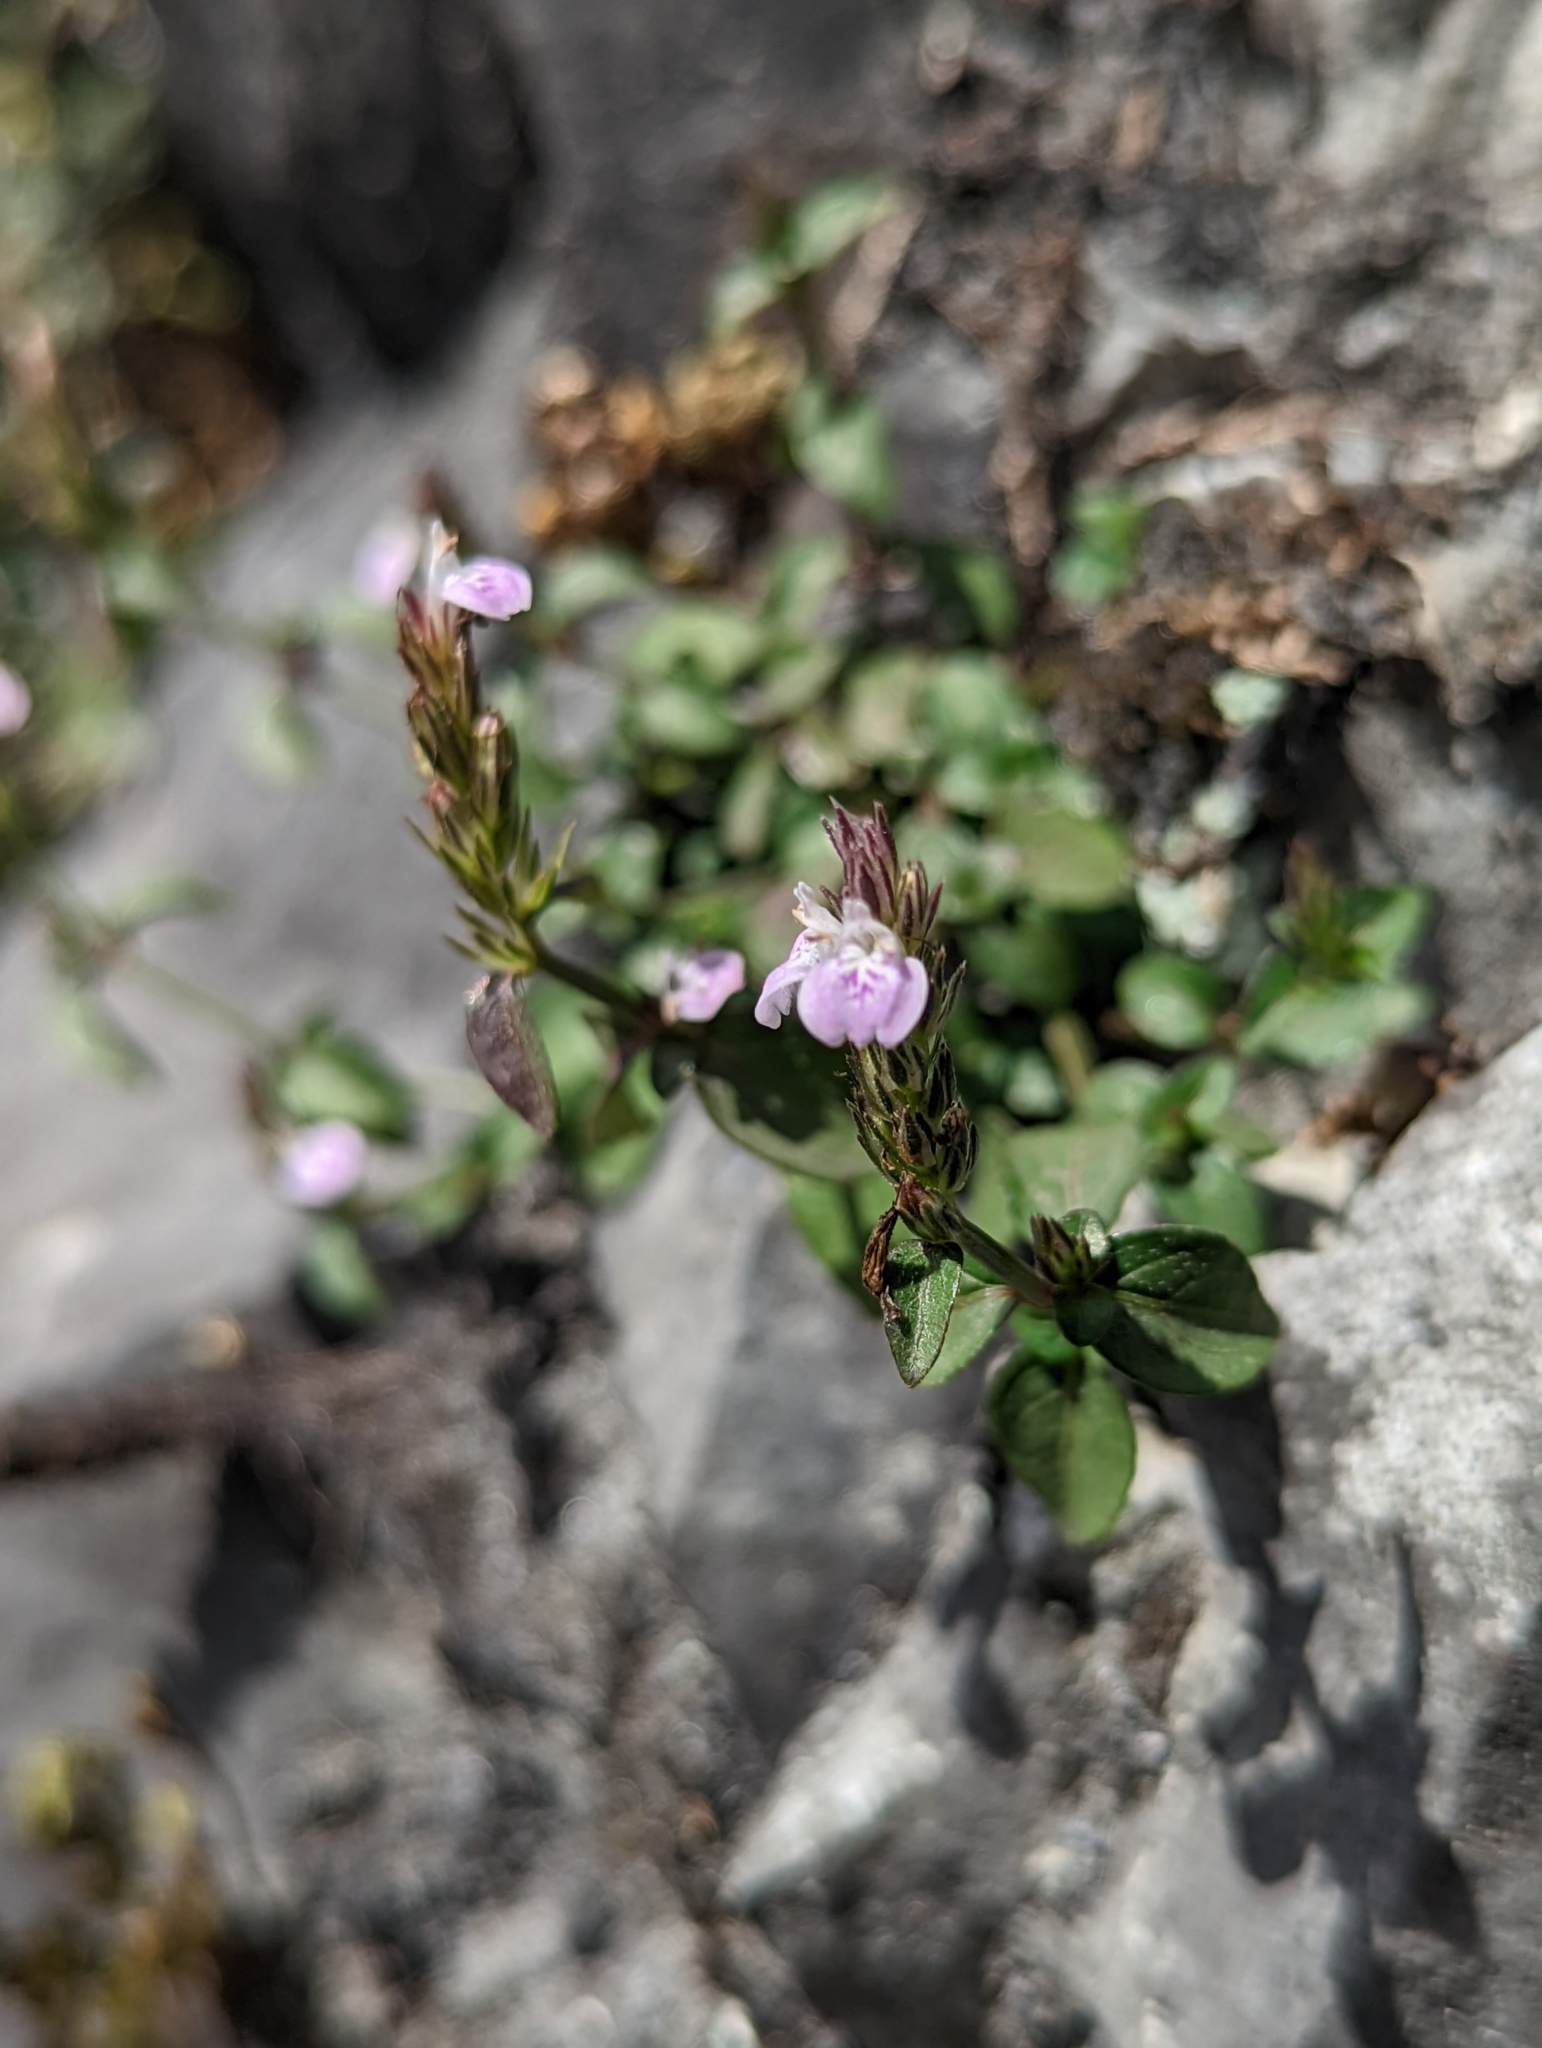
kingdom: Plantae
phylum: Tracheophyta
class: Magnoliopsida
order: Lamiales
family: Acanthaceae
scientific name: Acanthaceae
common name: Acanthaceae
